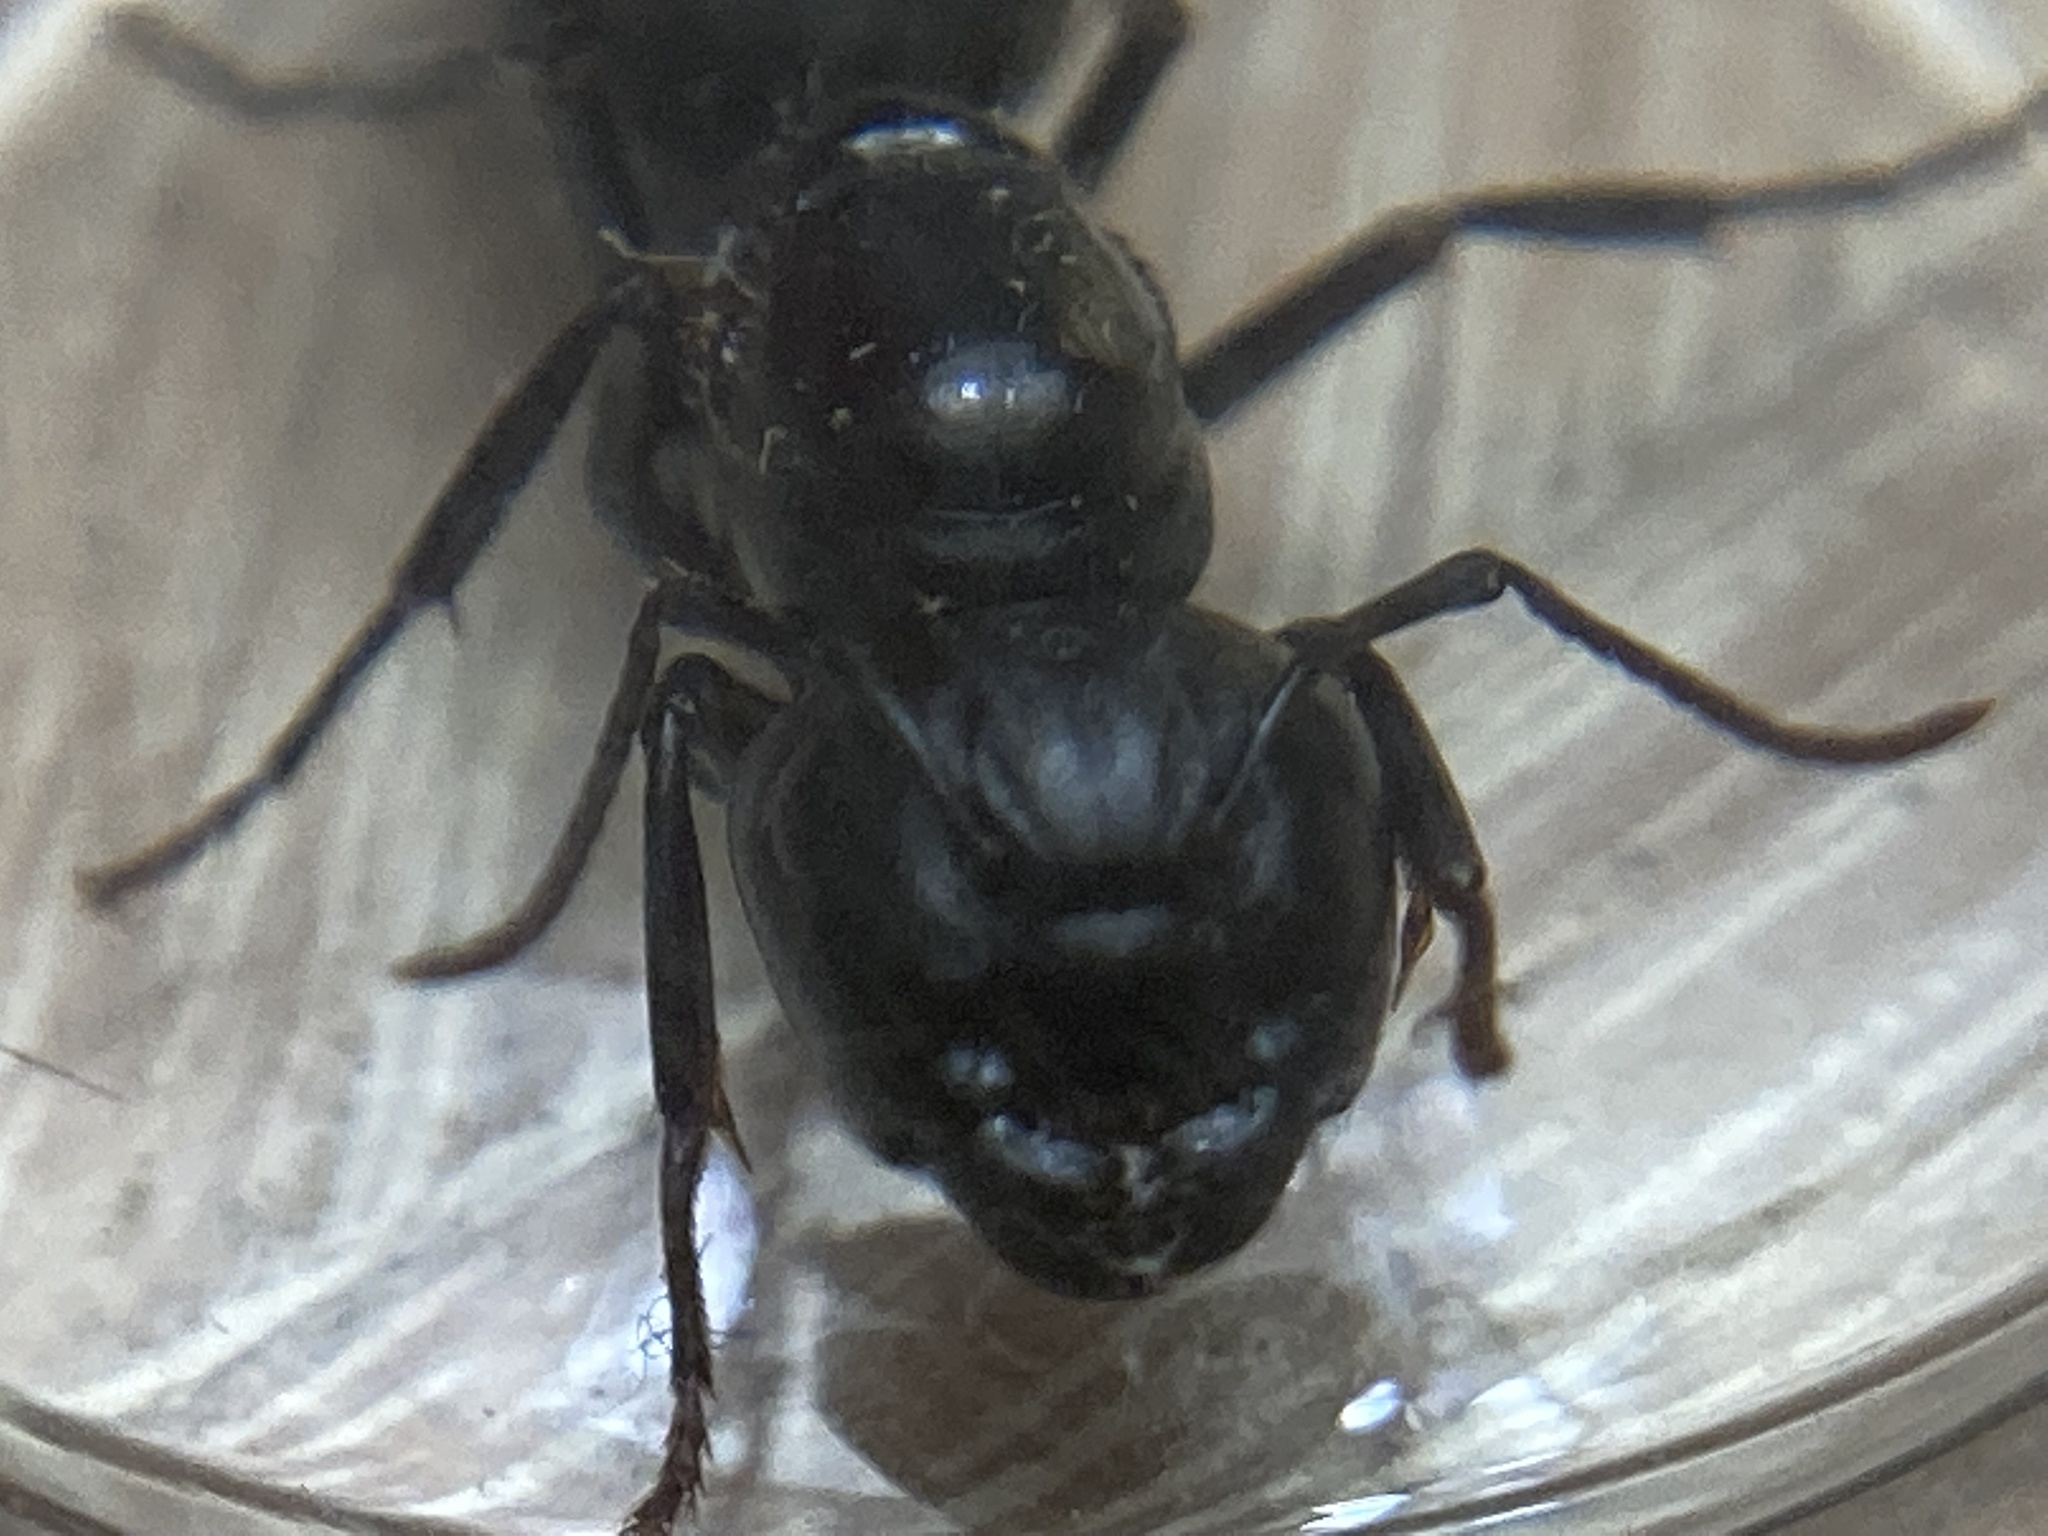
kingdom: Animalia
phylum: Arthropoda
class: Insecta
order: Hymenoptera
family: Formicidae
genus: Camponotus
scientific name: Camponotus pennsylvanicus
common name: Black carpenter ant
